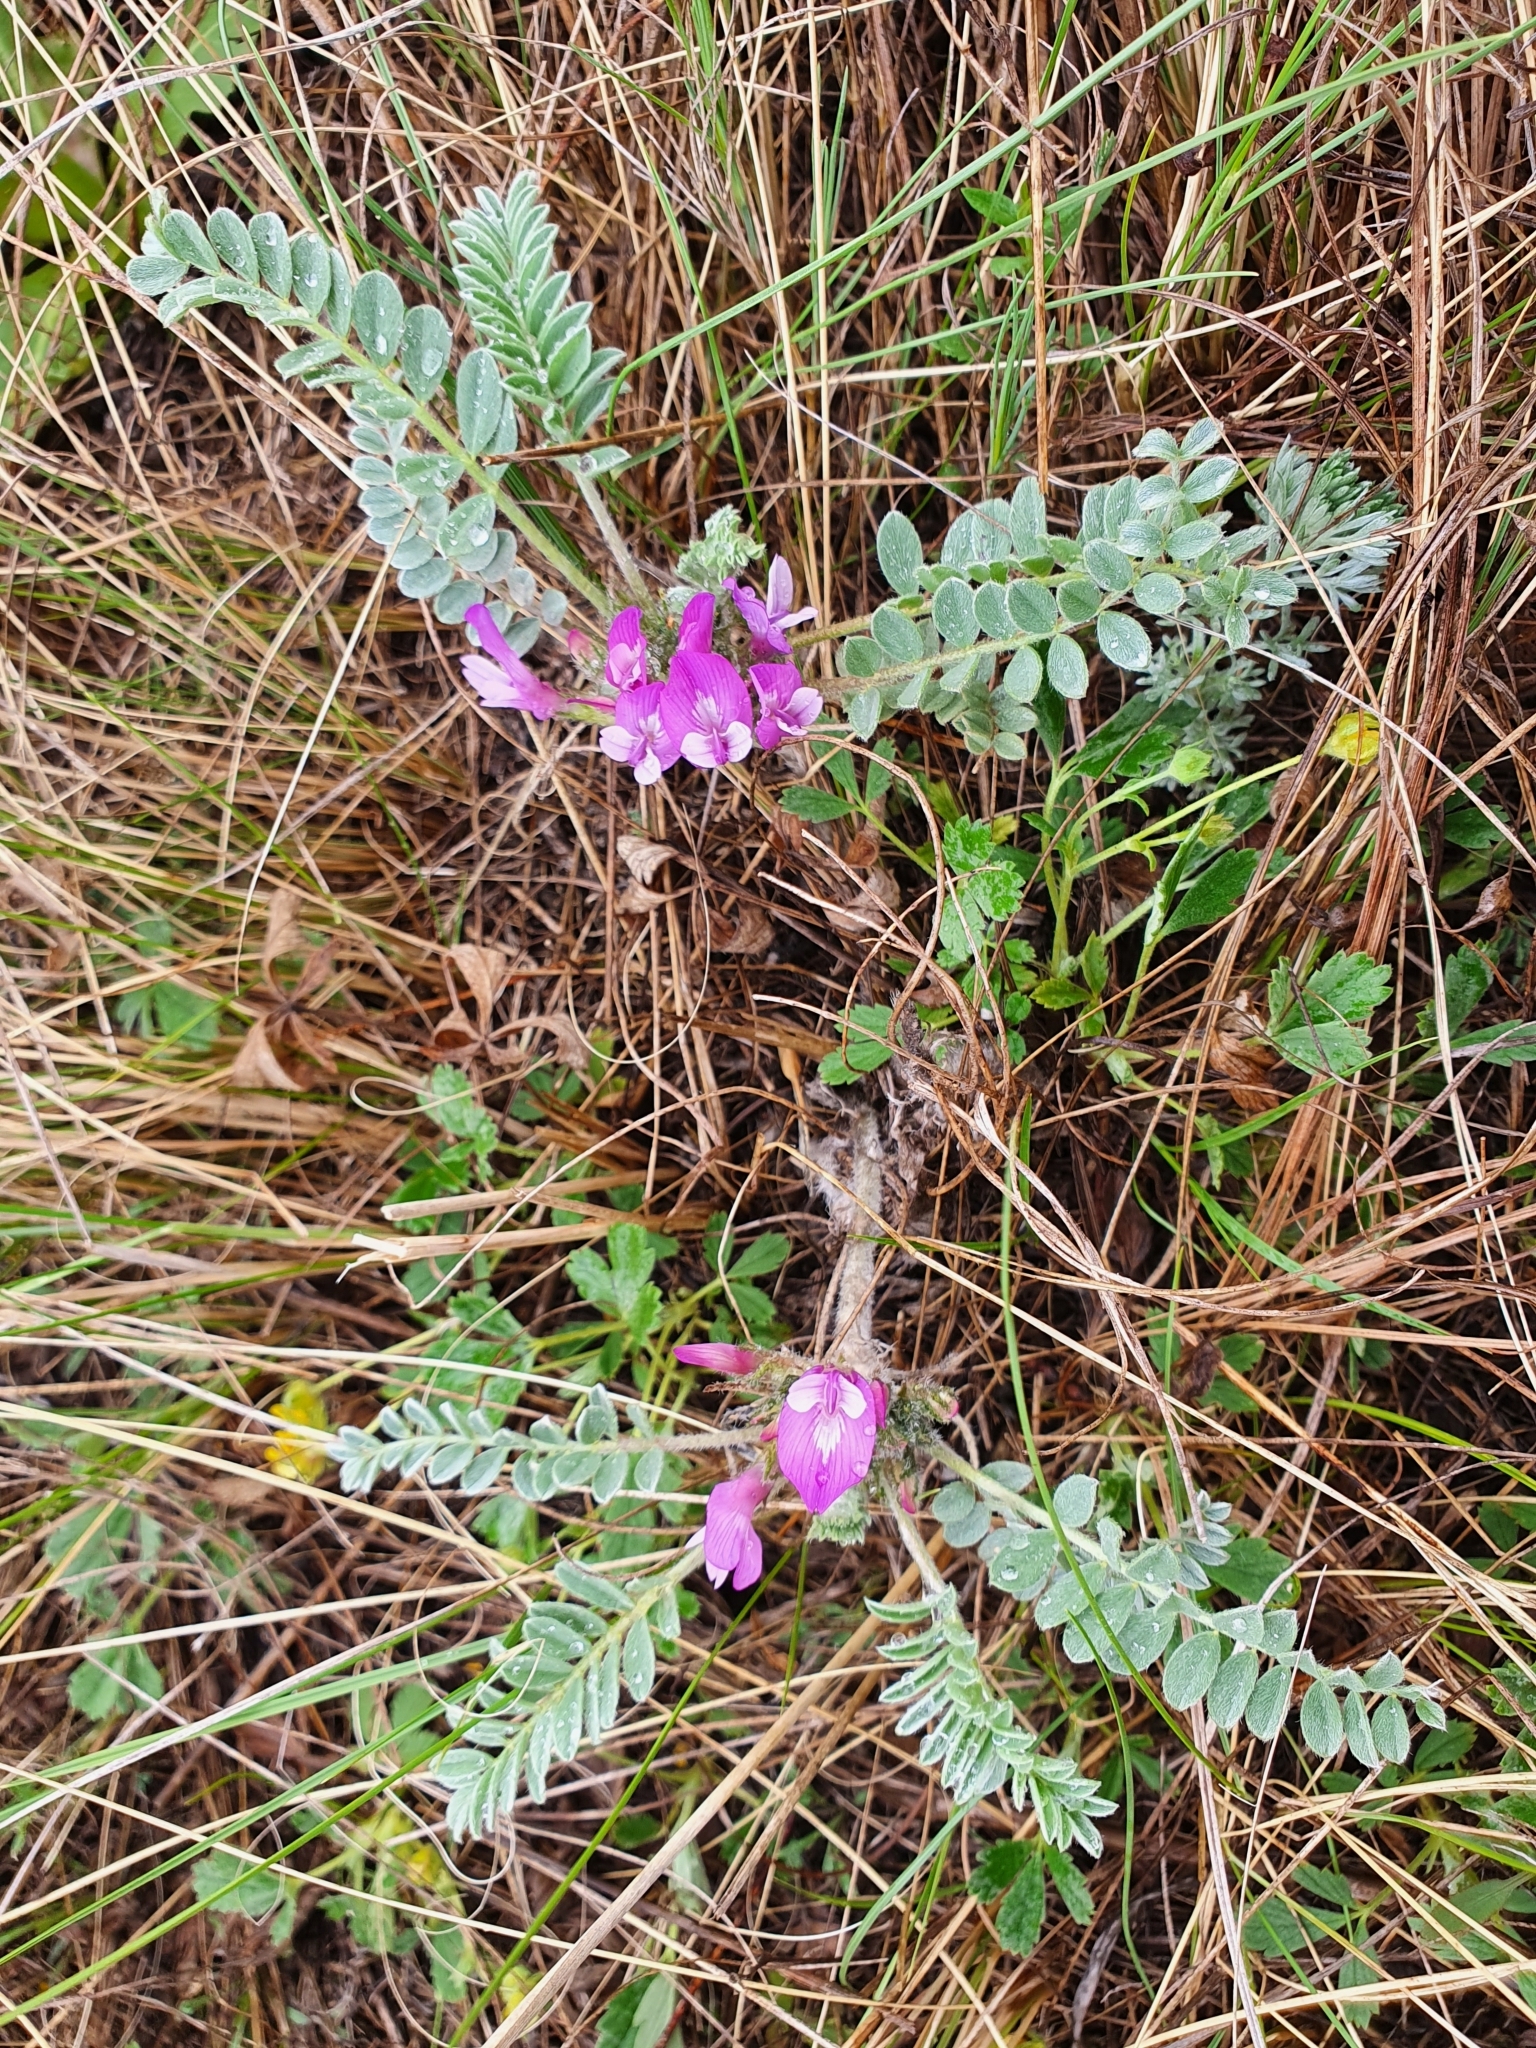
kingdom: Plantae
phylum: Tracheophyta
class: Magnoliopsida
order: Fabales
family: Fabaceae
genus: Astragalus
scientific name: Astragalus testiculatus
